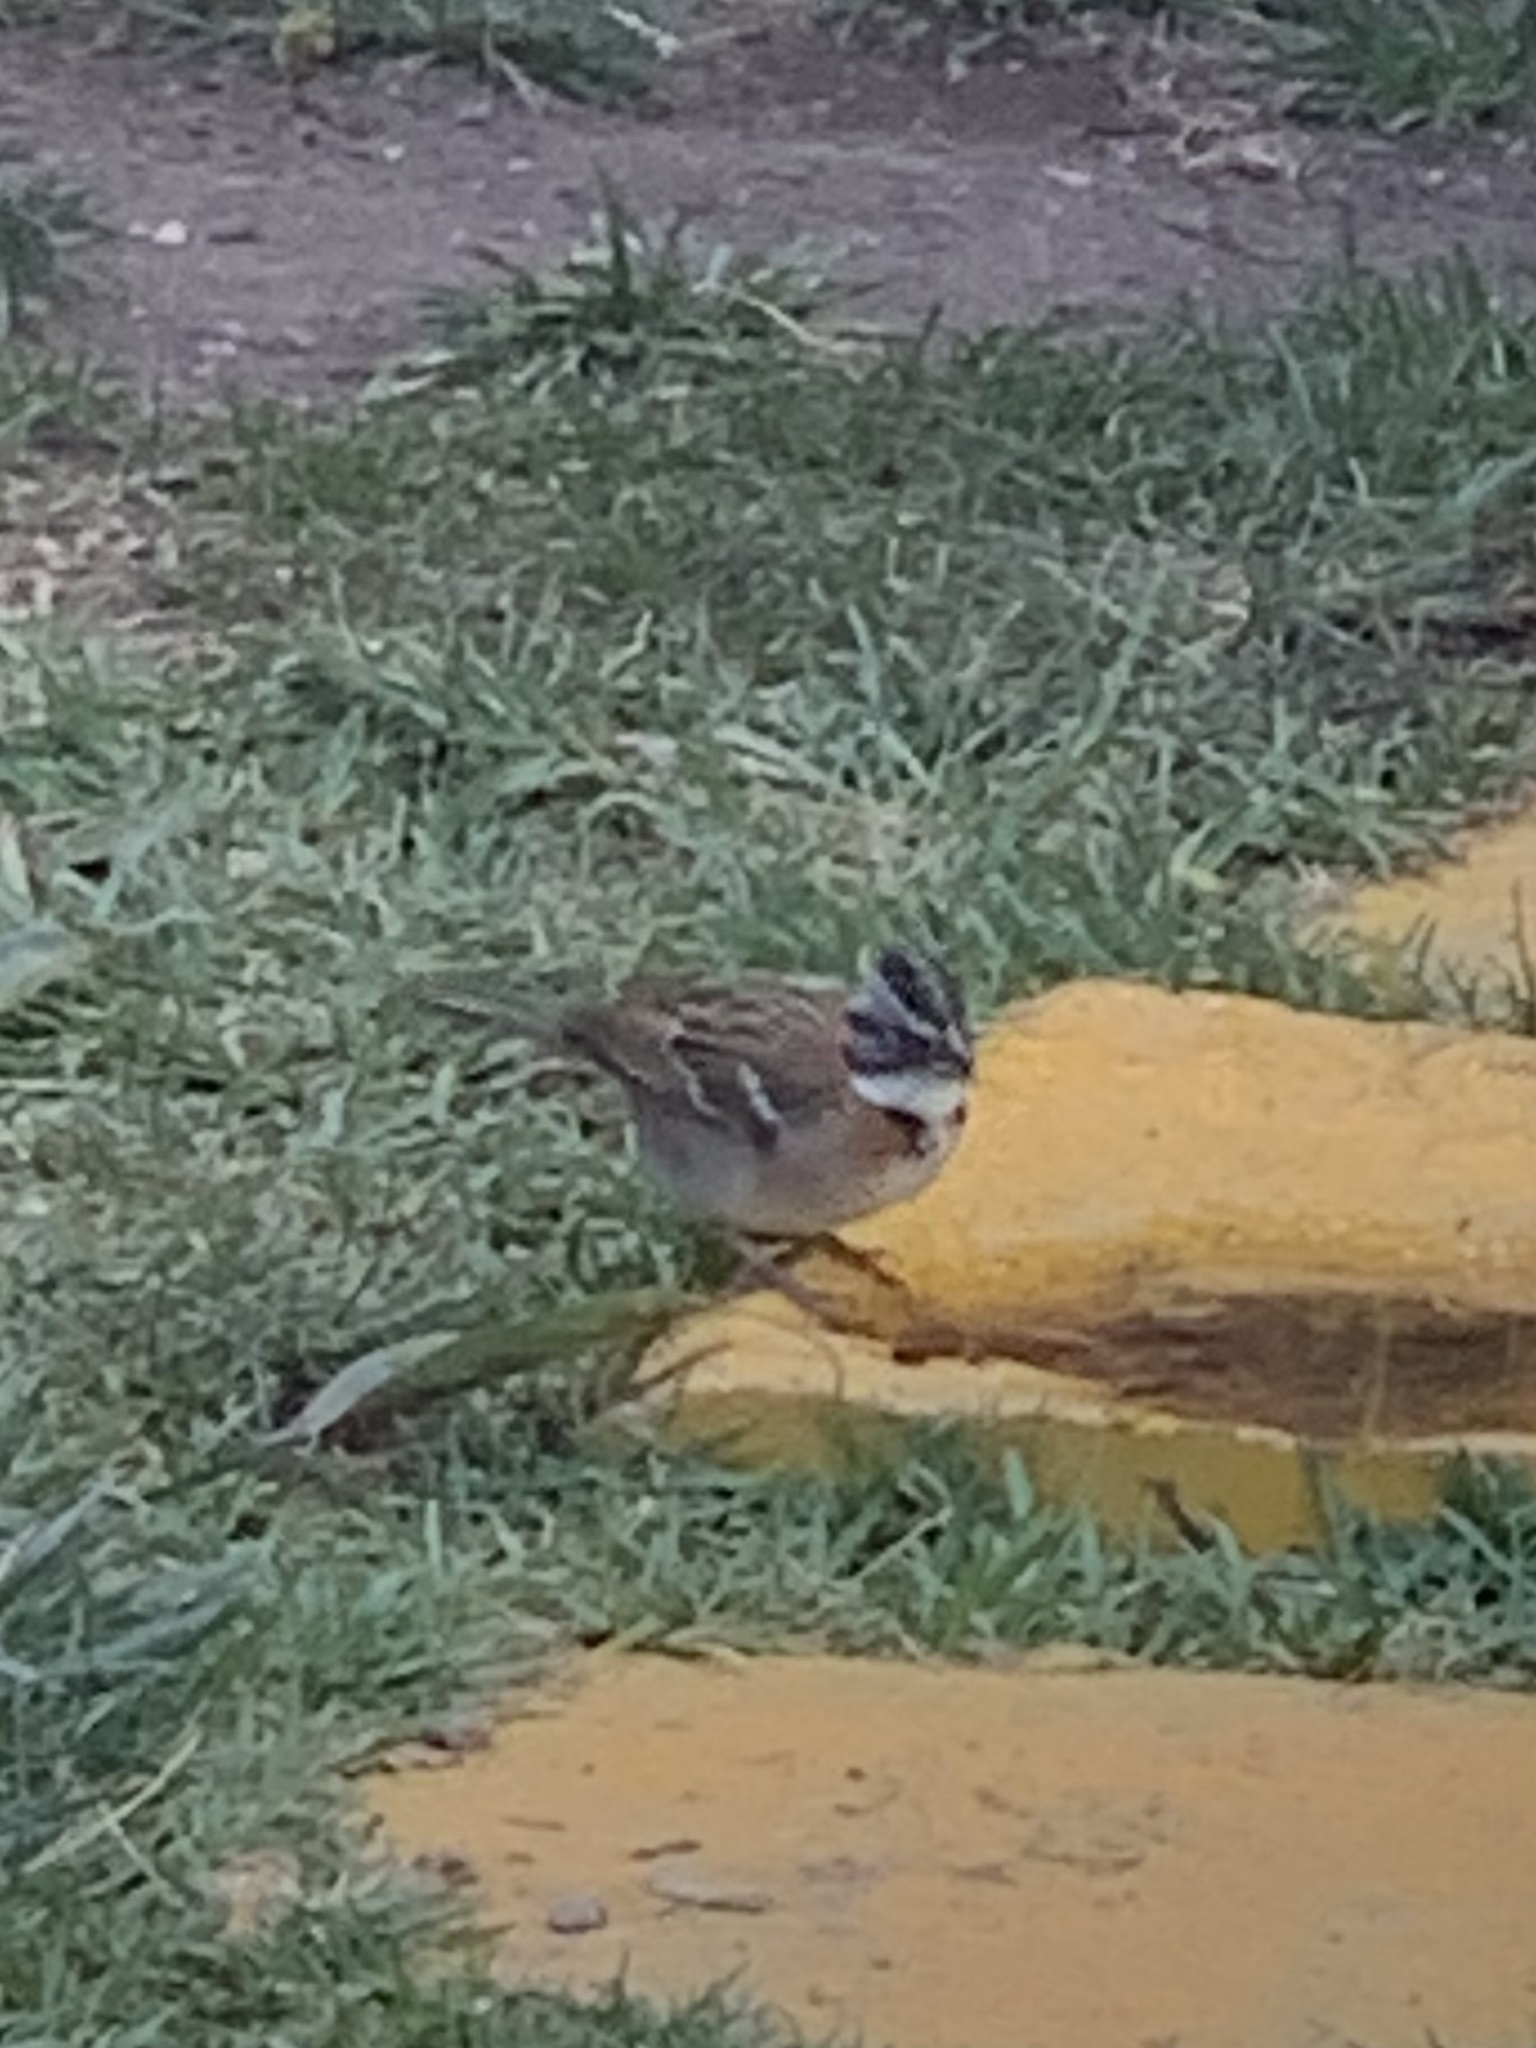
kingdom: Animalia
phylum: Chordata
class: Aves
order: Passeriformes
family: Passerellidae
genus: Zonotrichia
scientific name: Zonotrichia capensis
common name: Rufous-collared sparrow
